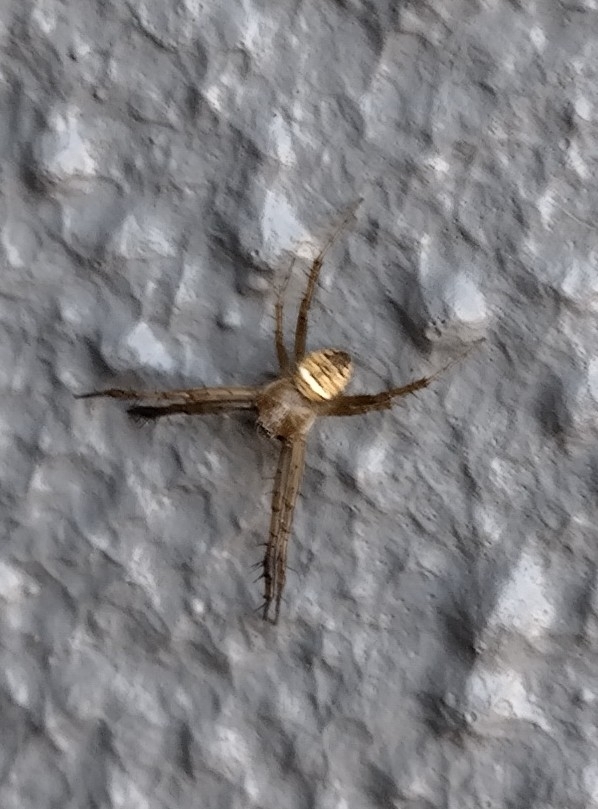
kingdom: Animalia
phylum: Arthropoda
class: Arachnida
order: Araneae
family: Araneidae
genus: Gea
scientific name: Gea theridioides
